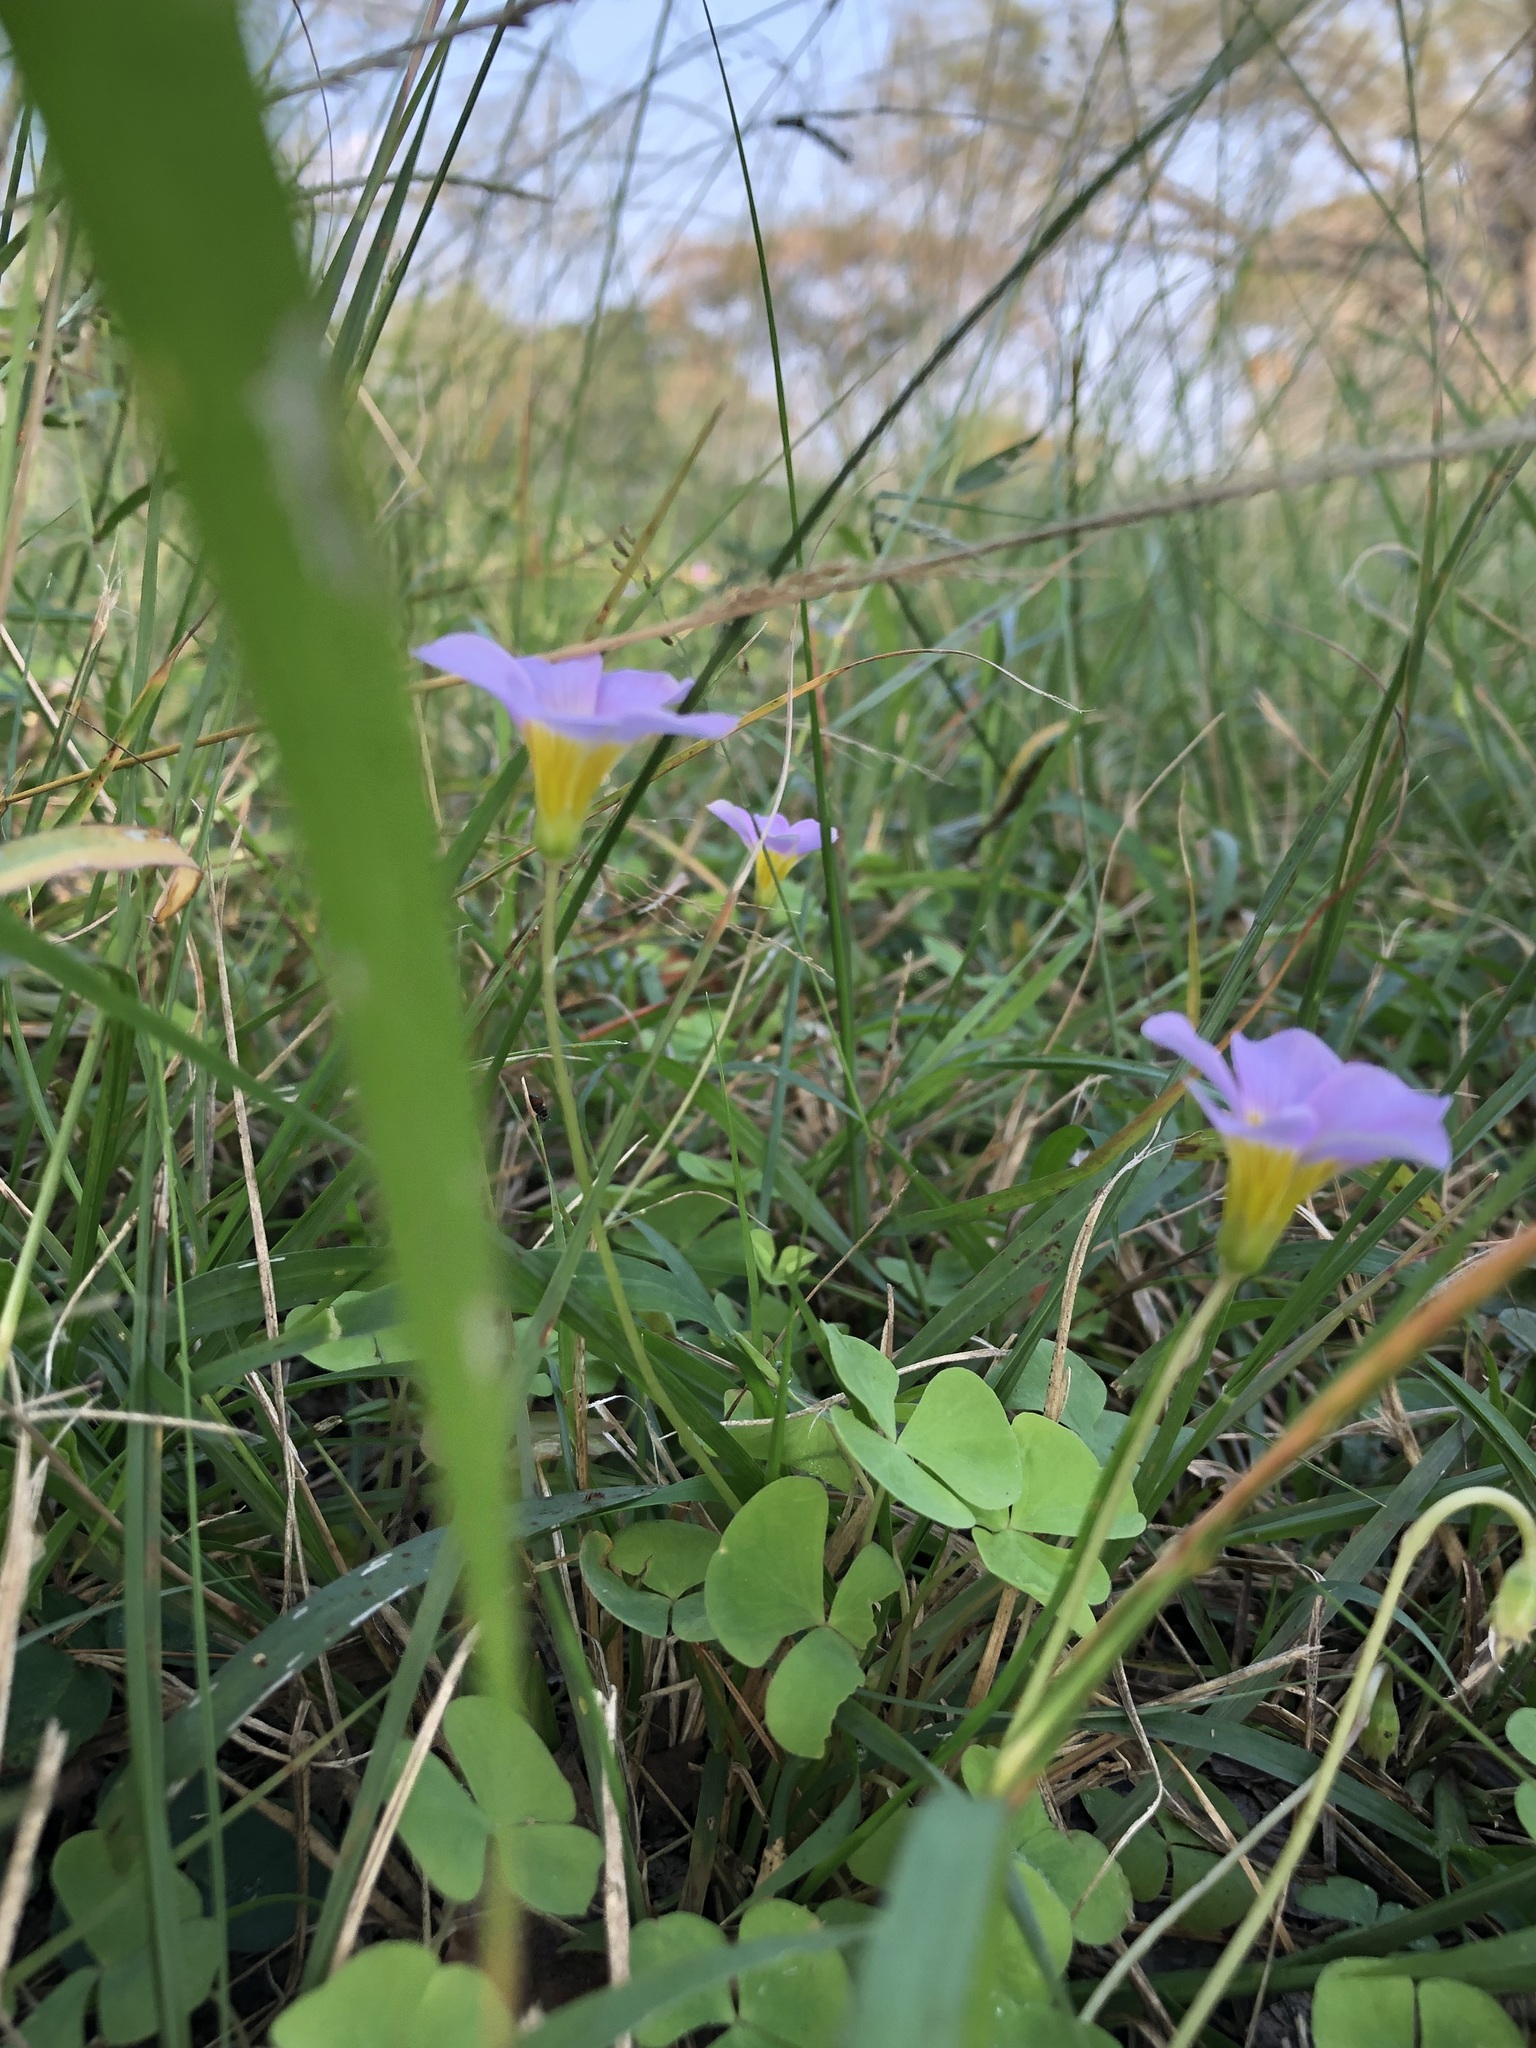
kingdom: Plantae
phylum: Tracheophyta
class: Magnoliopsida
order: Oxalidales
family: Oxalidaceae
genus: Oxalis
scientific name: Oxalis obliquifolia
